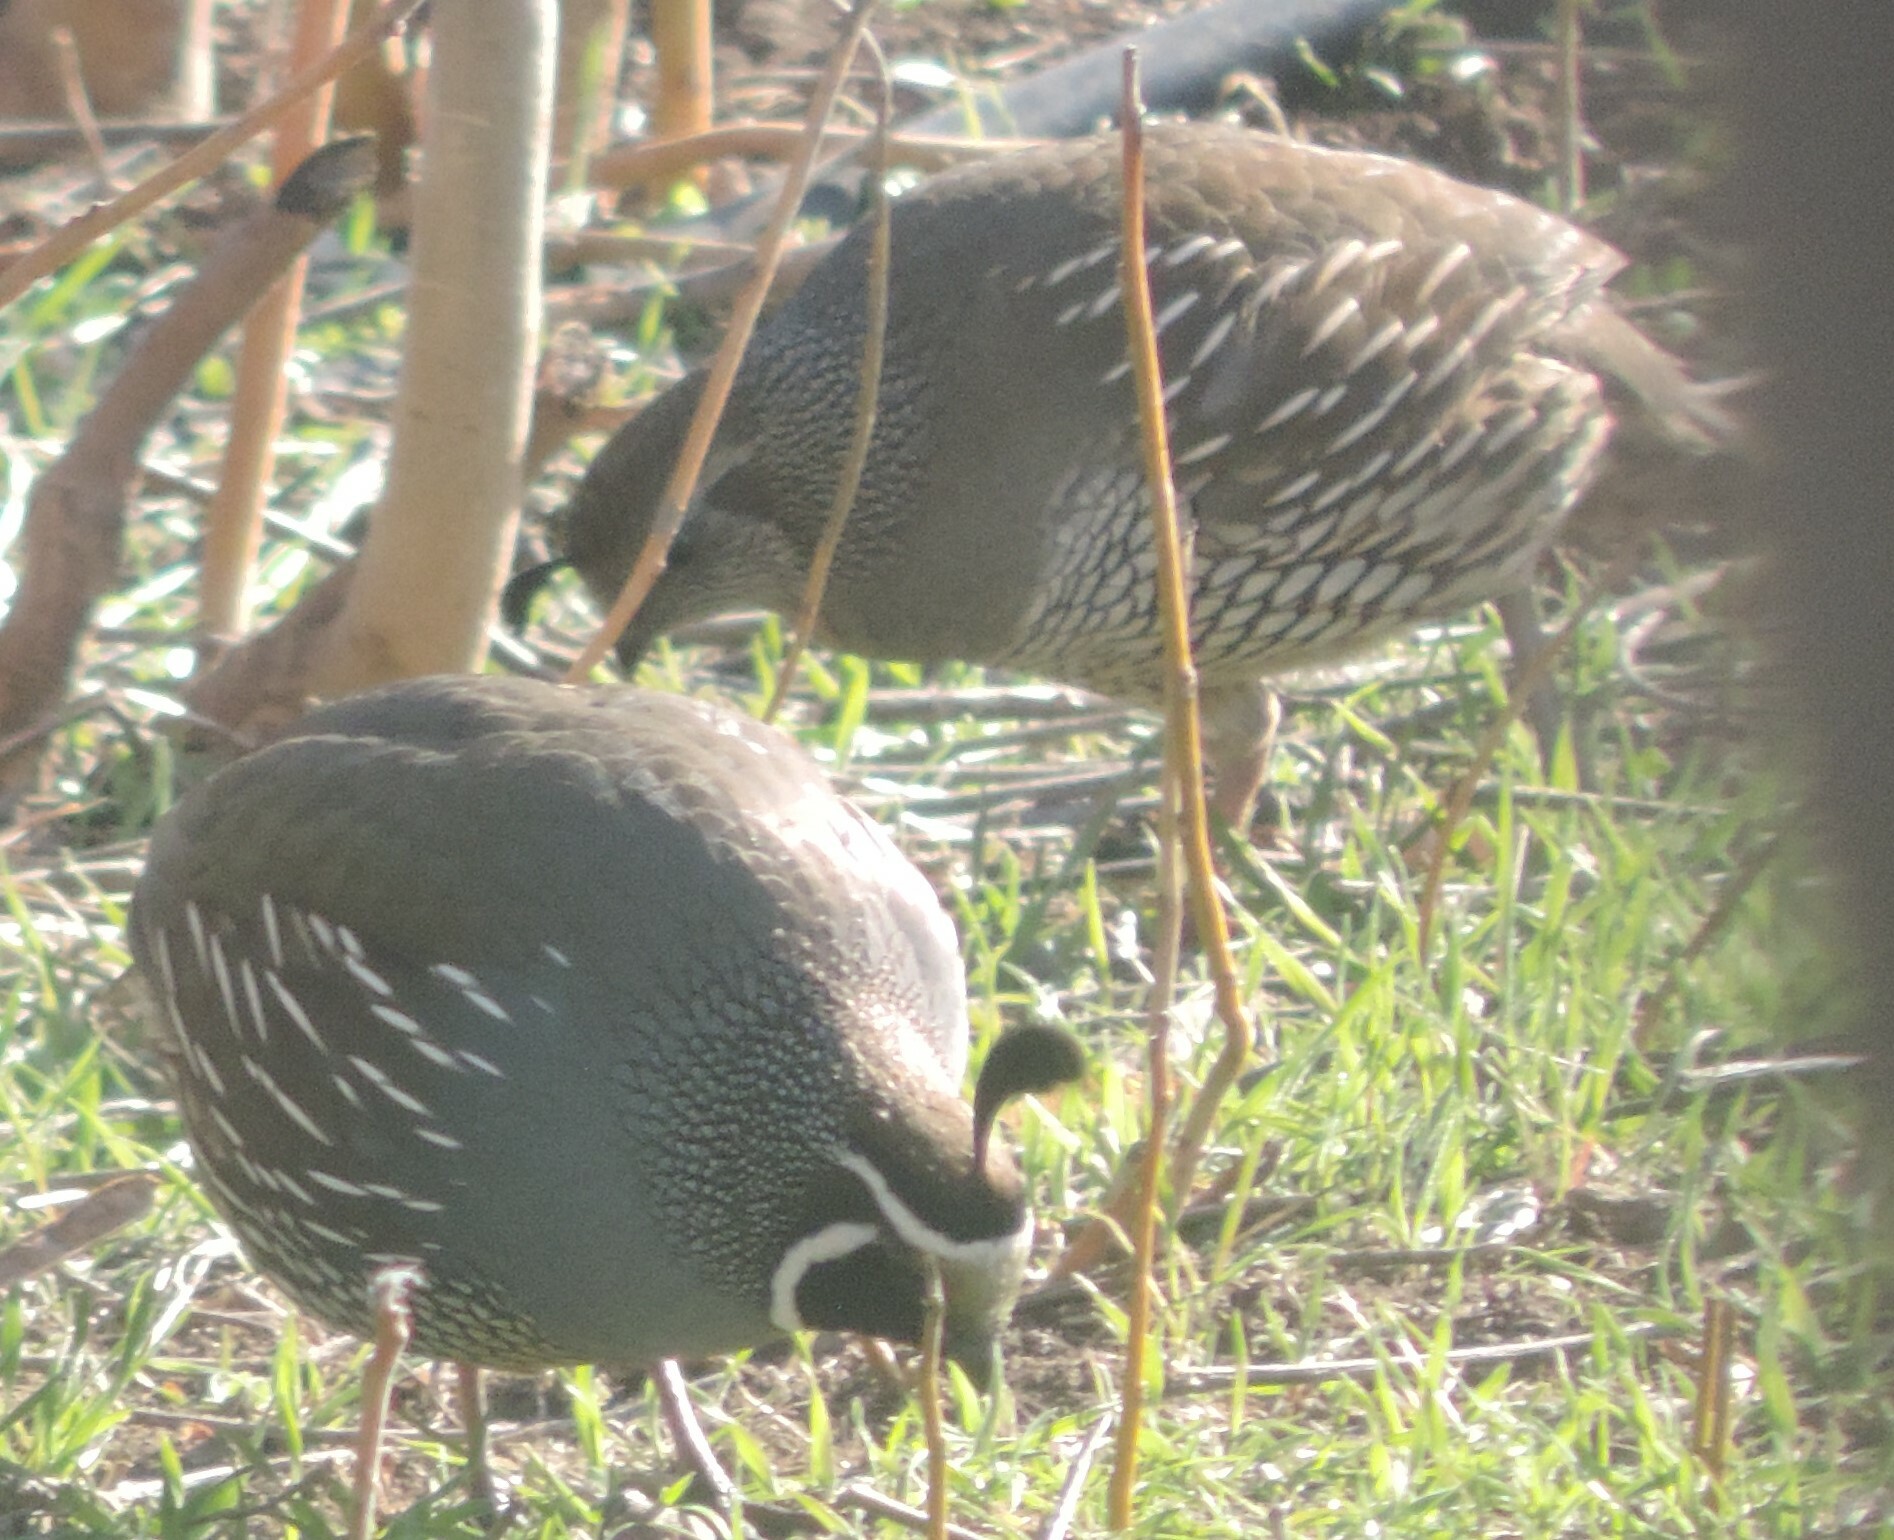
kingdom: Animalia
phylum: Chordata
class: Aves
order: Galliformes
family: Odontophoridae
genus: Callipepla
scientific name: Callipepla californica
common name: California quail
